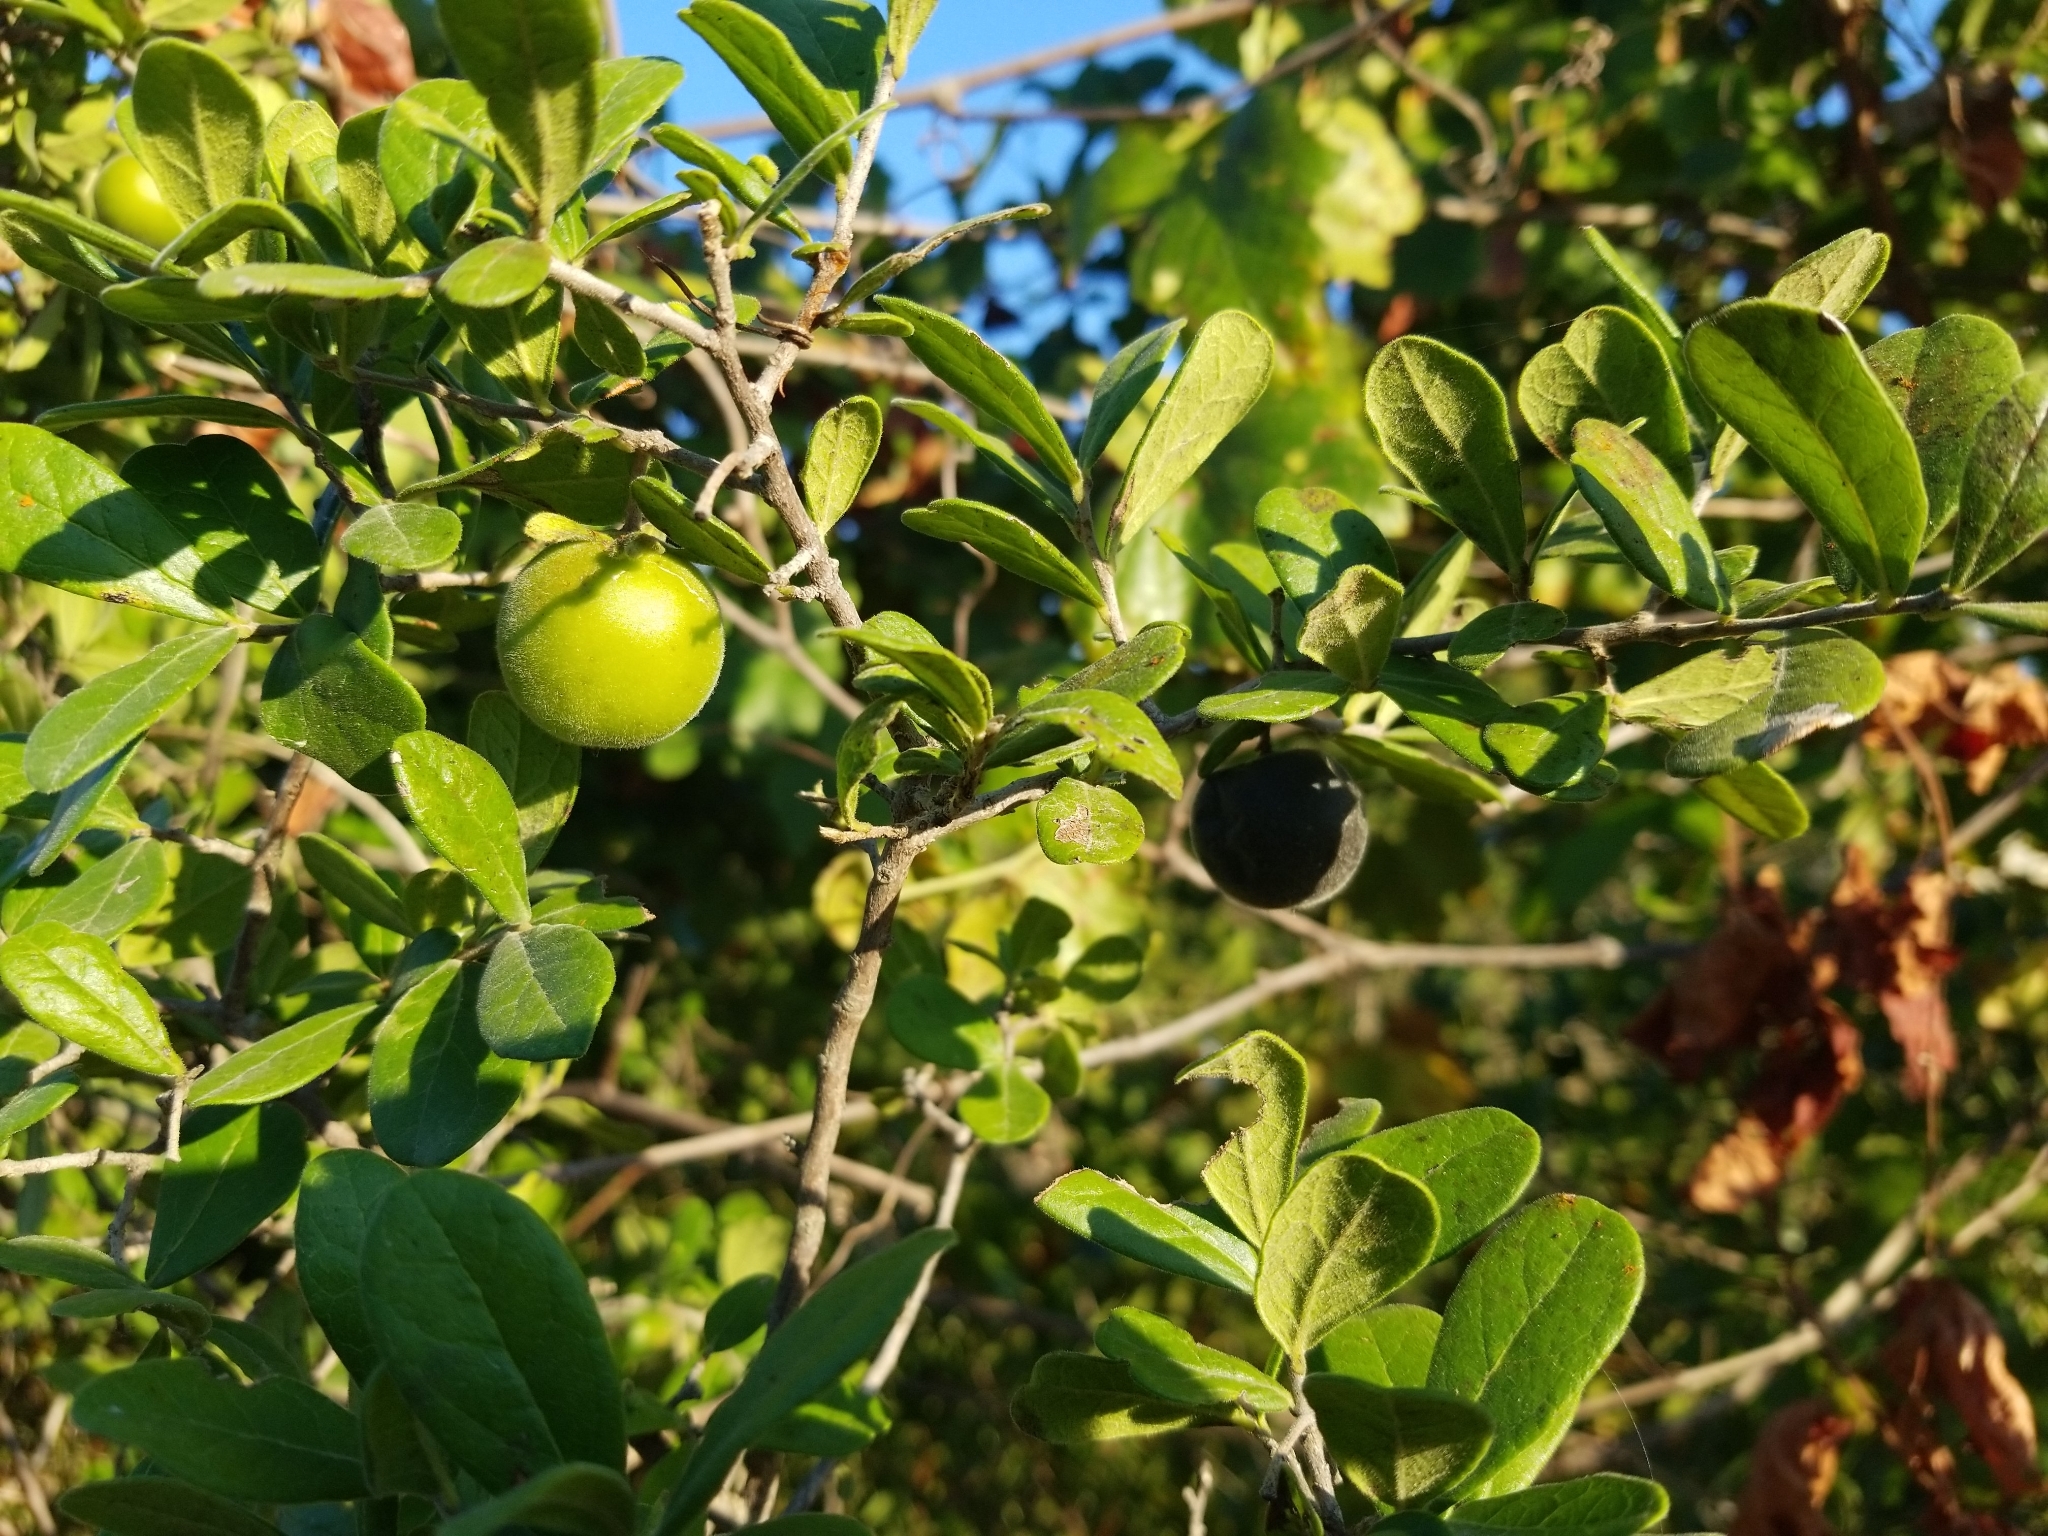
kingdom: Plantae
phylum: Tracheophyta
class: Magnoliopsida
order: Ericales
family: Ebenaceae
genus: Diospyros
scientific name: Diospyros texana
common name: Texas persimmon
